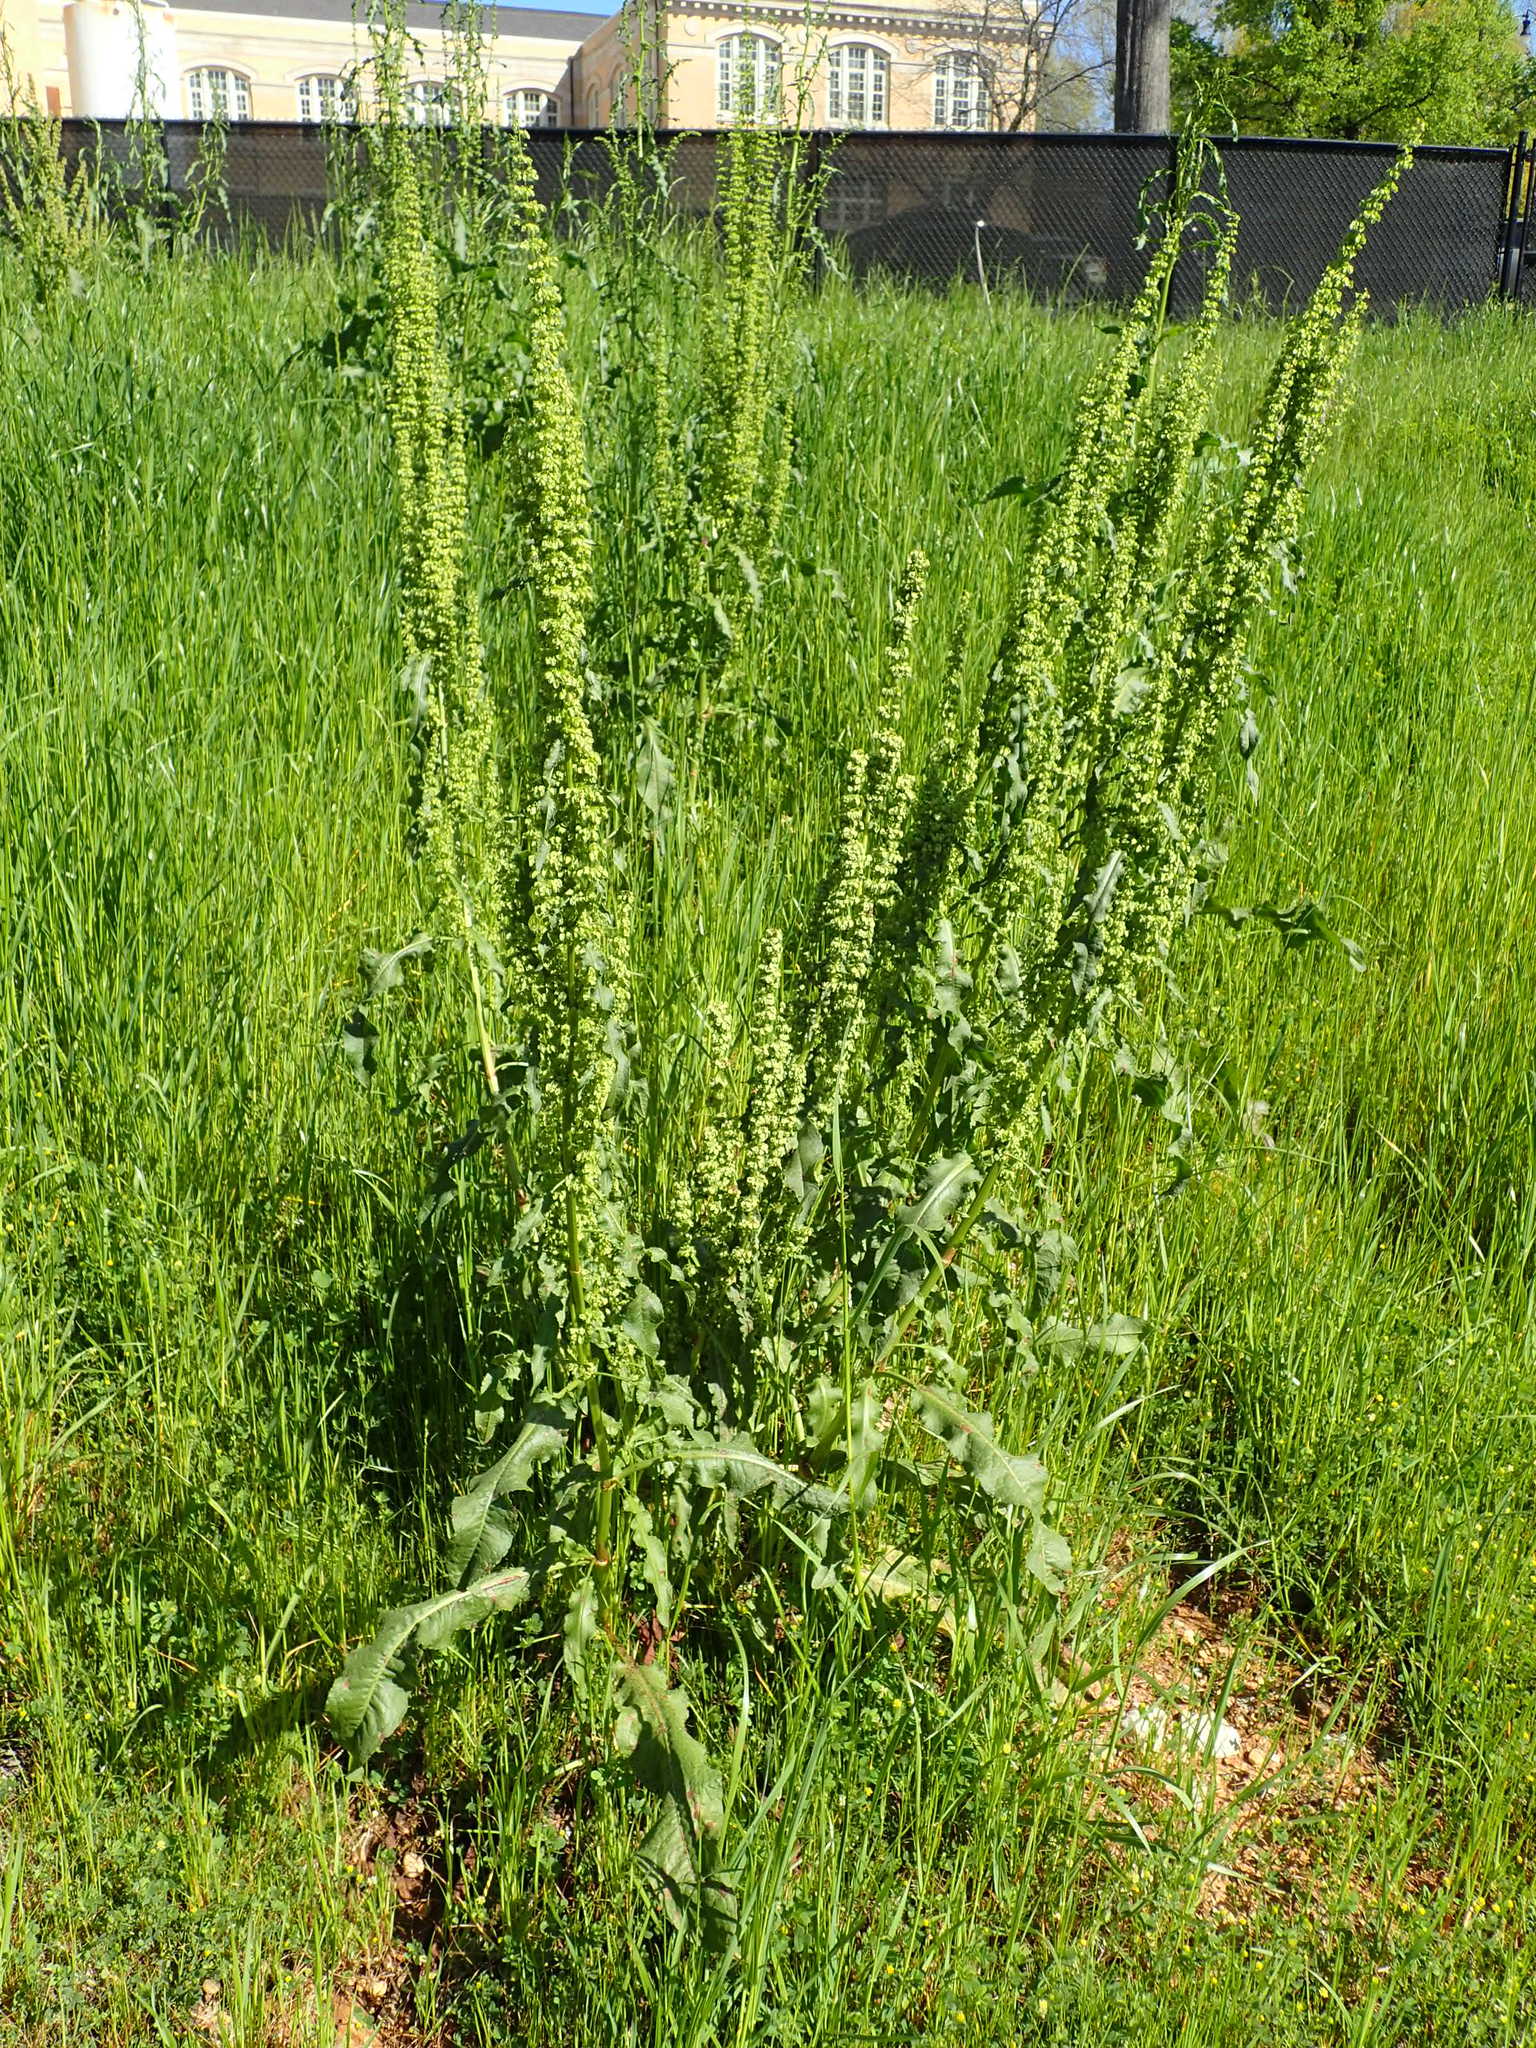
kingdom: Plantae
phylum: Tracheophyta
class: Magnoliopsida
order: Caryophyllales
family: Polygonaceae
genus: Rumex
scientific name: Rumex crispus
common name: Curled dock
